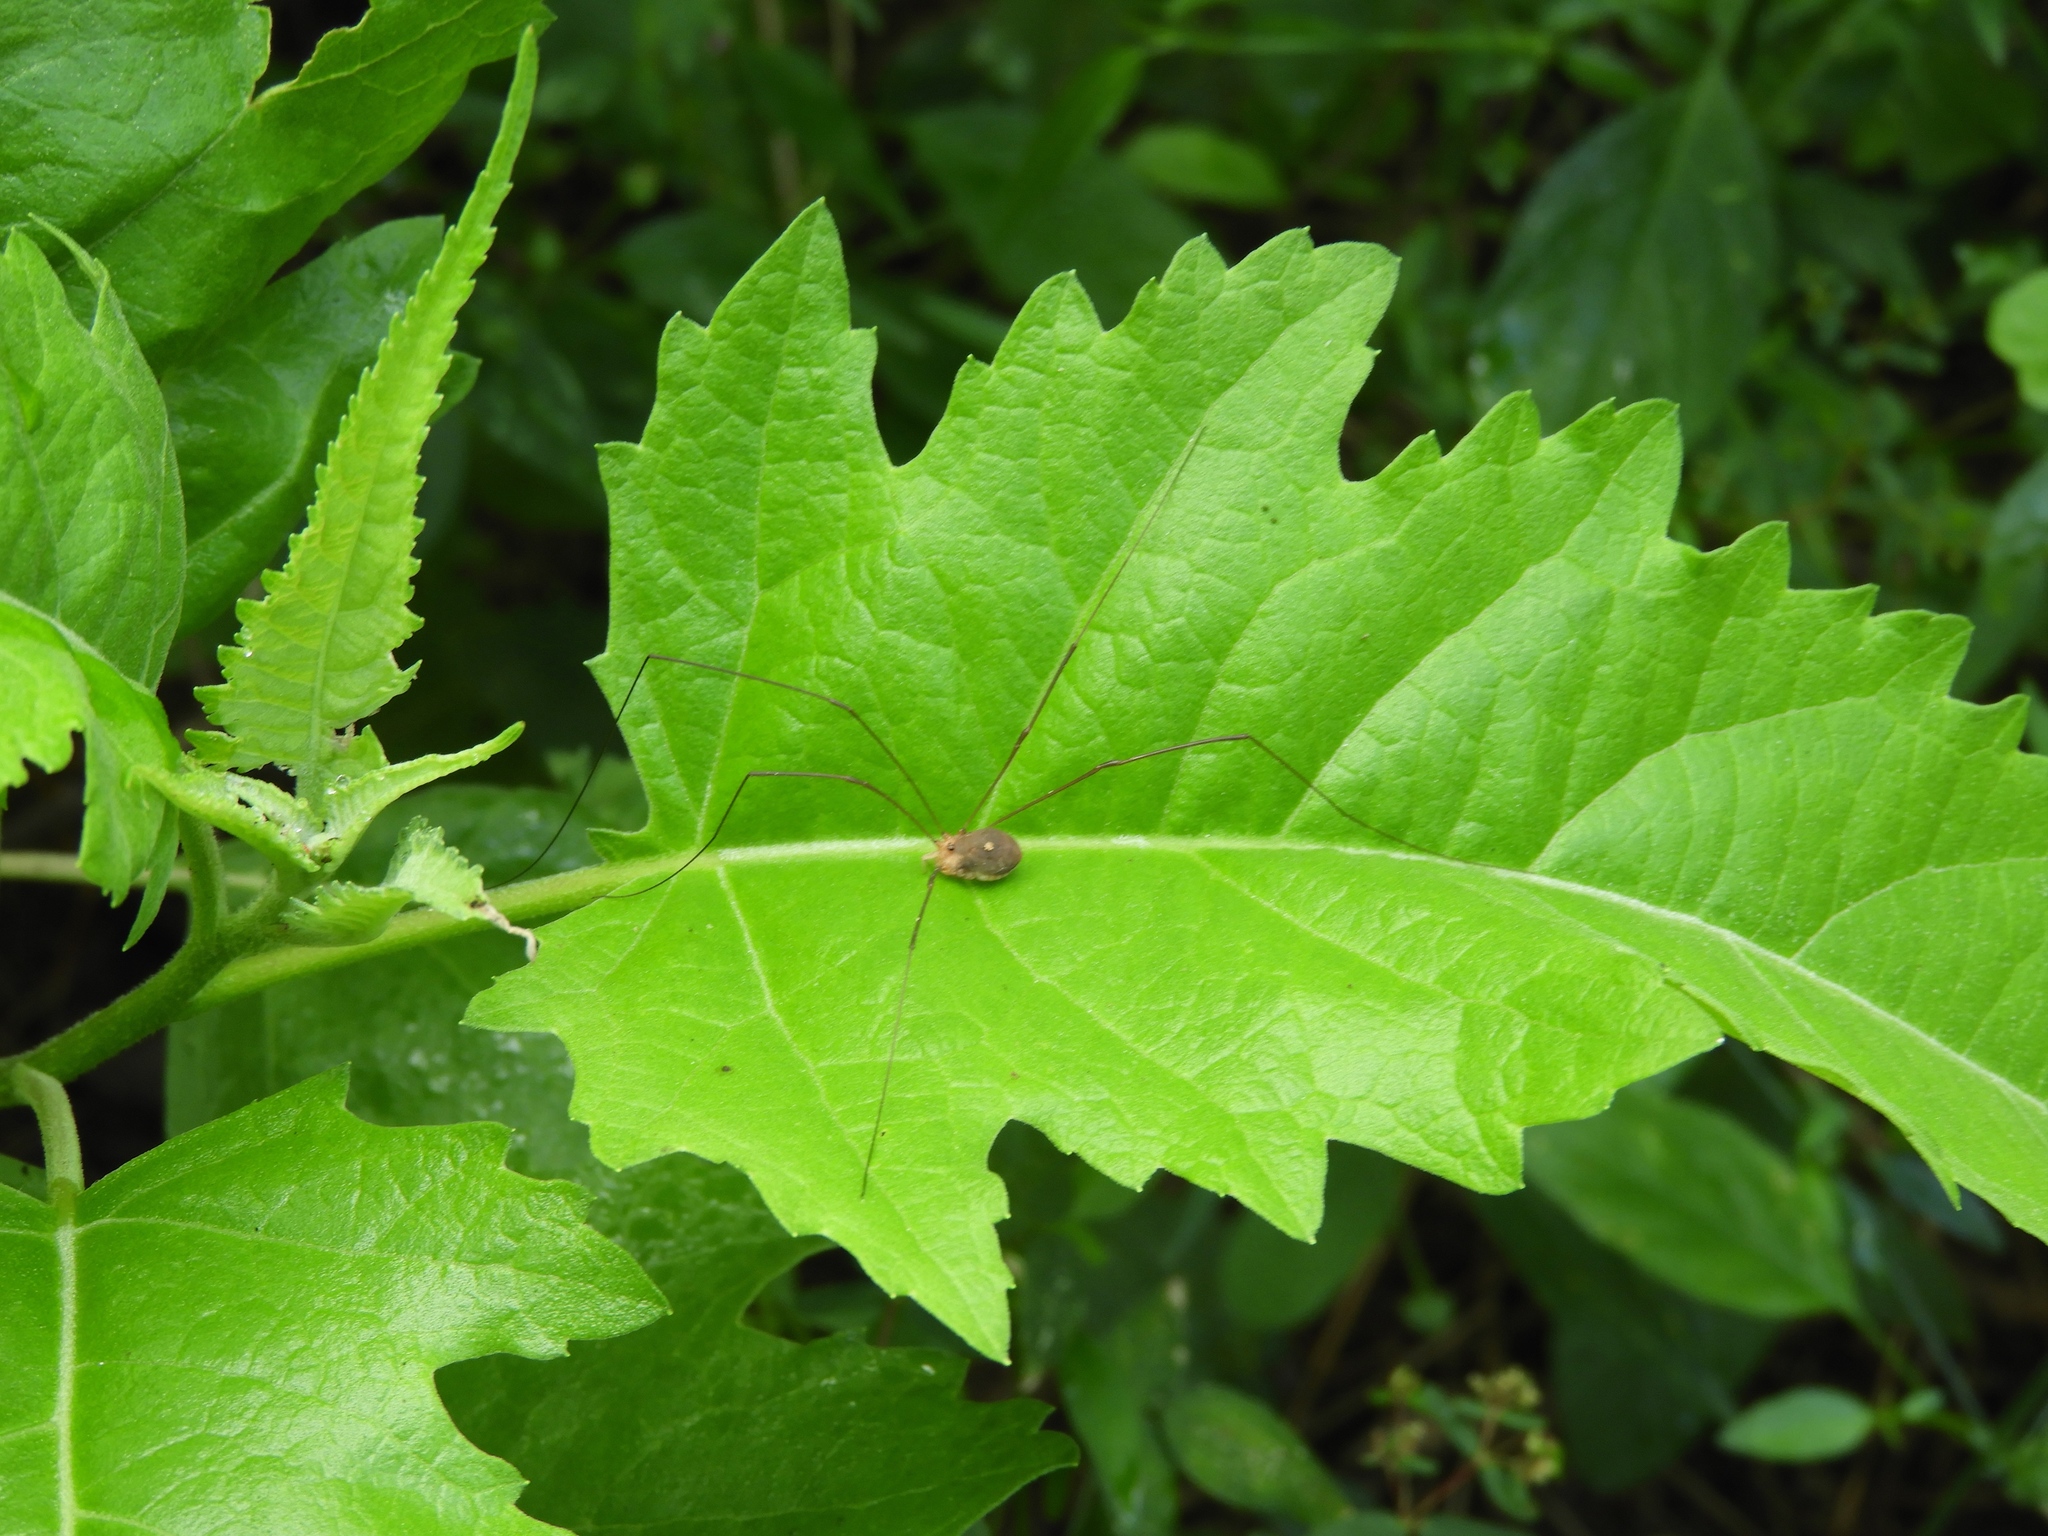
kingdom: Animalia
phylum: Arthropoda
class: Arachnida
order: Opiliones
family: Sclerosomatidae
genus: Leiobunum
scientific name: Leiobunum
